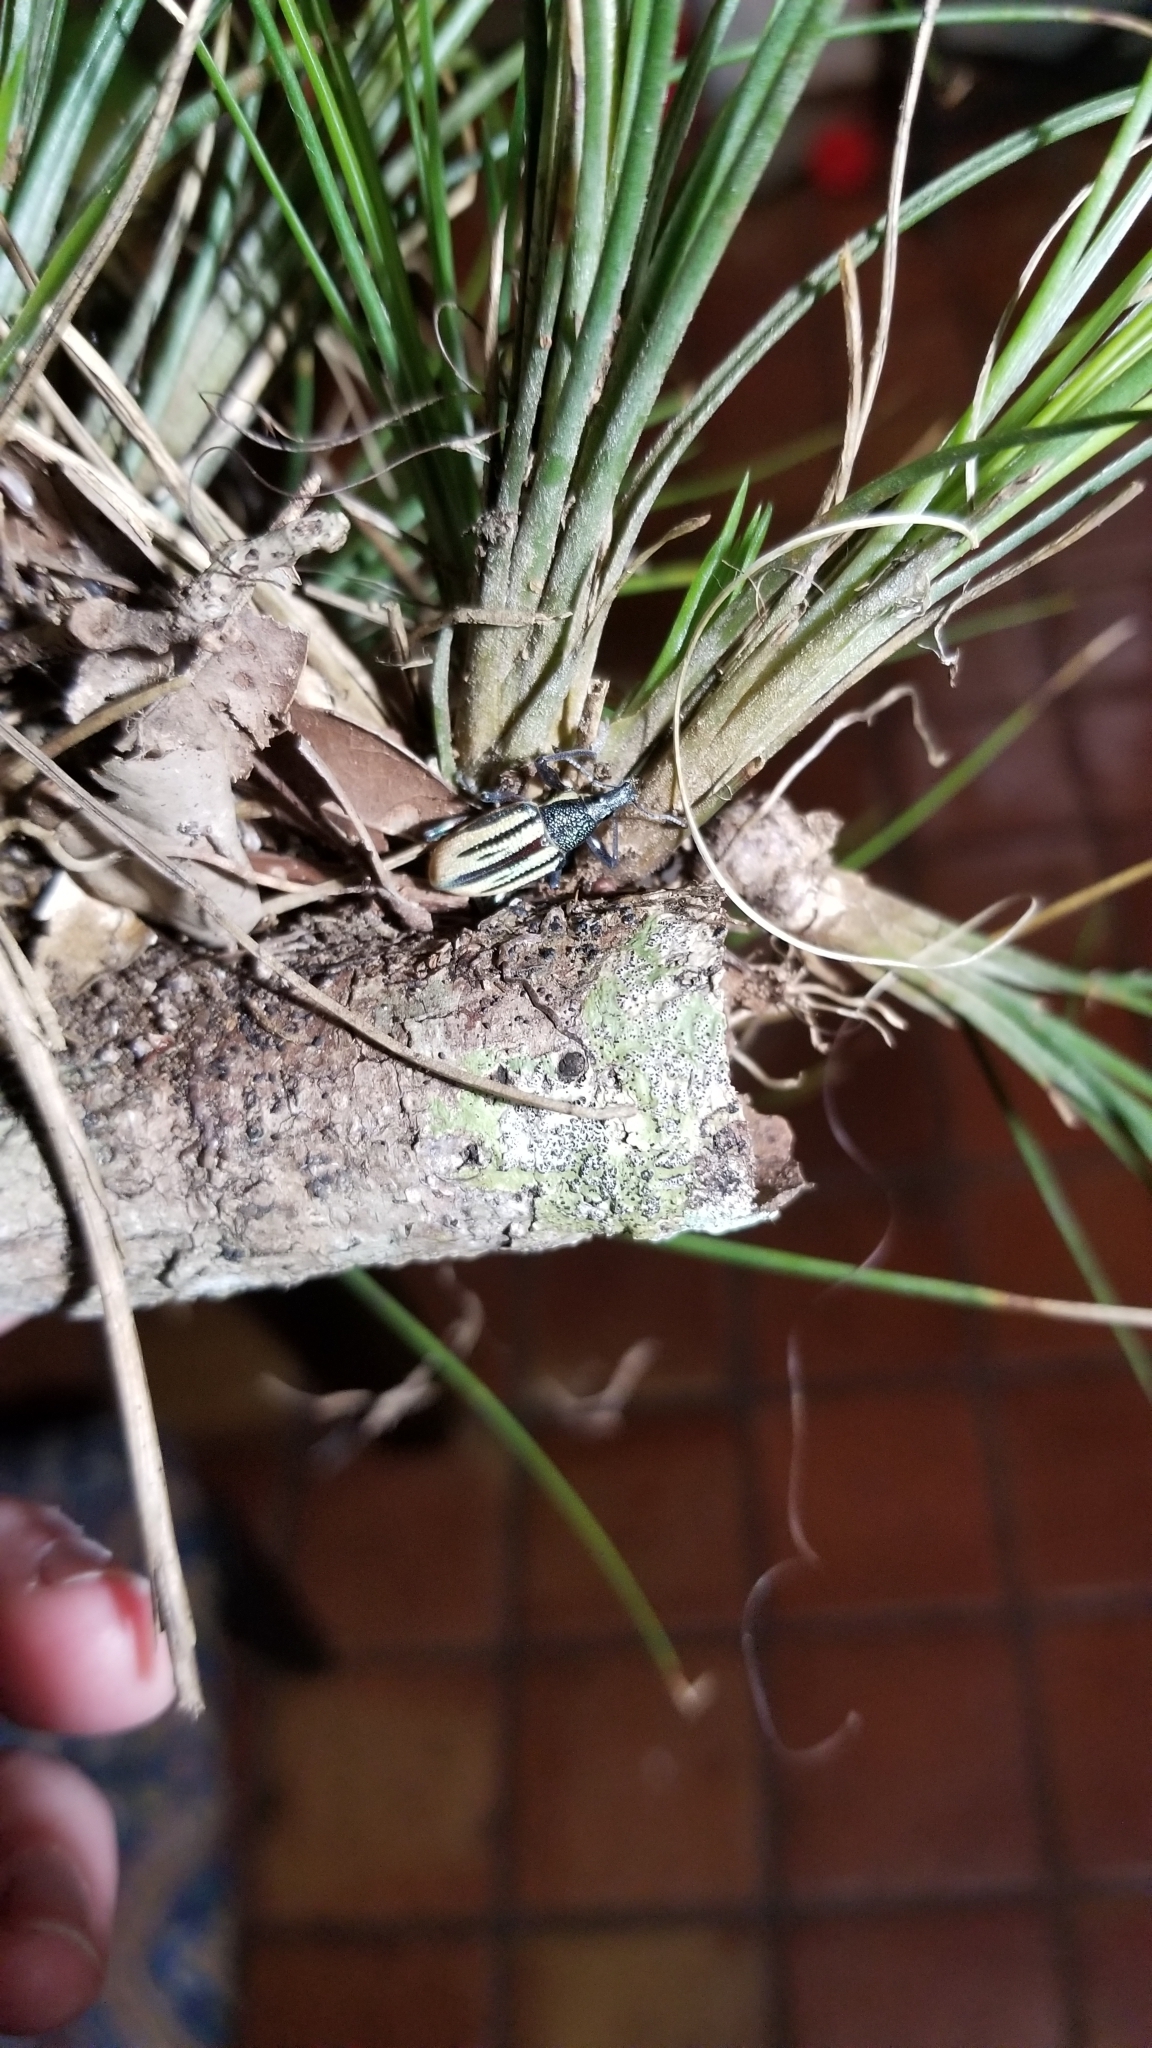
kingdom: Animalia
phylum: Arthropoda
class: Insecta
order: Coleoptera
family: Curculionidae
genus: Diaprepes
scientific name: Diaprepes abbreviatus
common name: Root weevil
